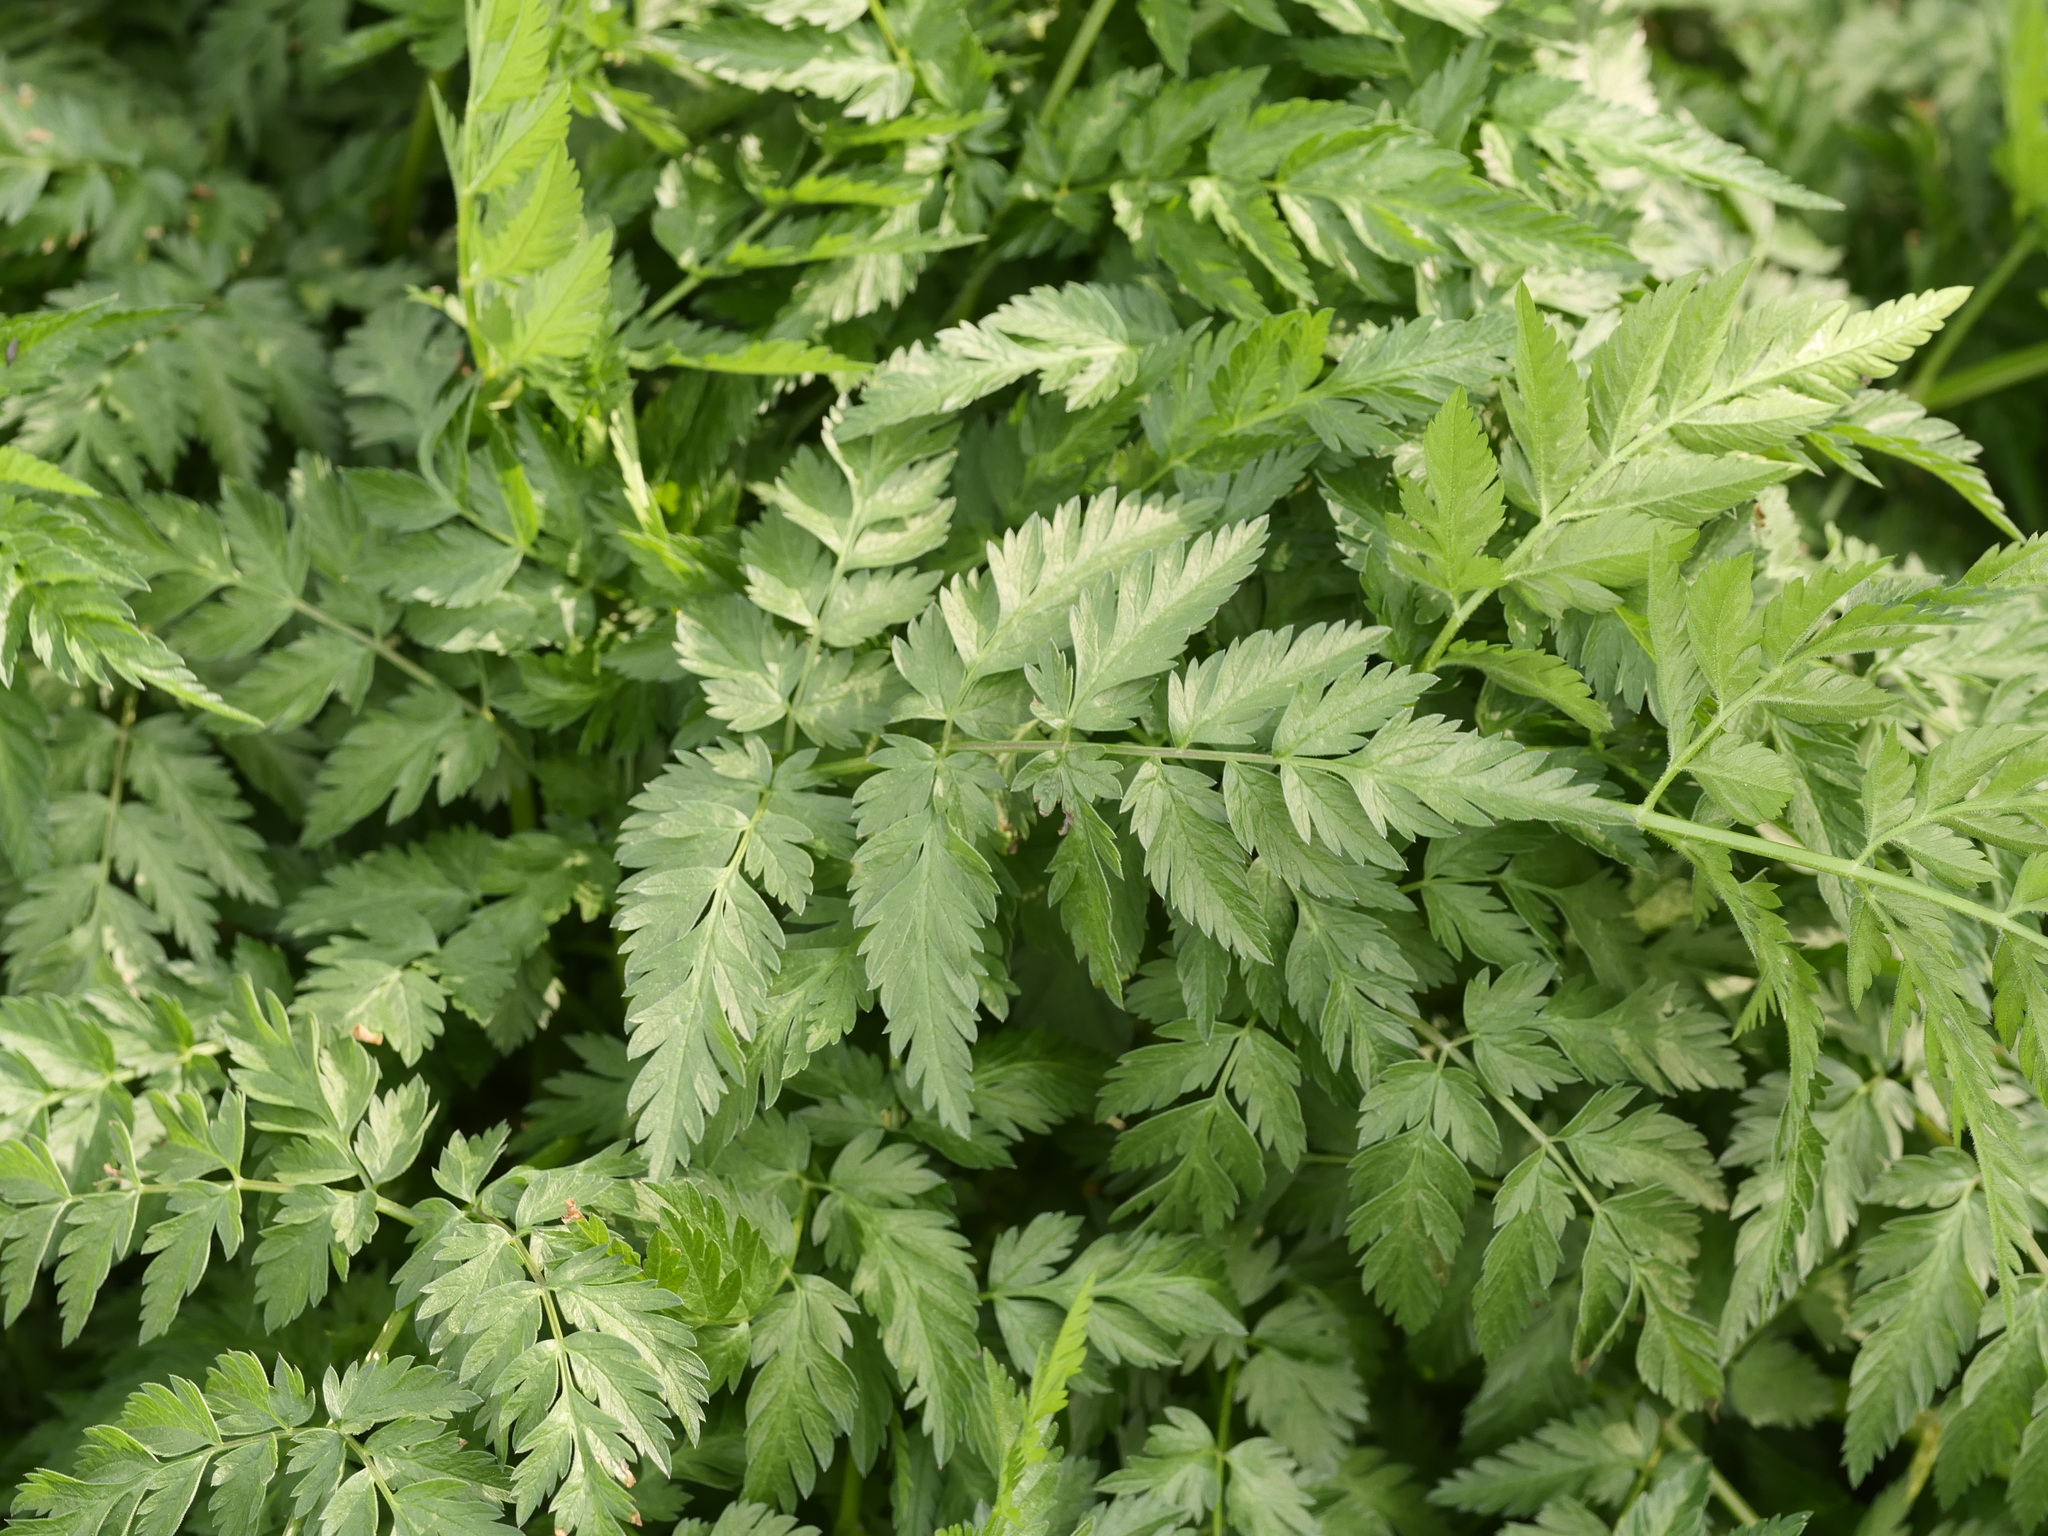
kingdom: Plantae
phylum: Tracheophyta
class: Magnoliopsida
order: Apiales
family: Apiaceae
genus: Anthriscus
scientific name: Anthriscus sylvestris
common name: Cow parsley
